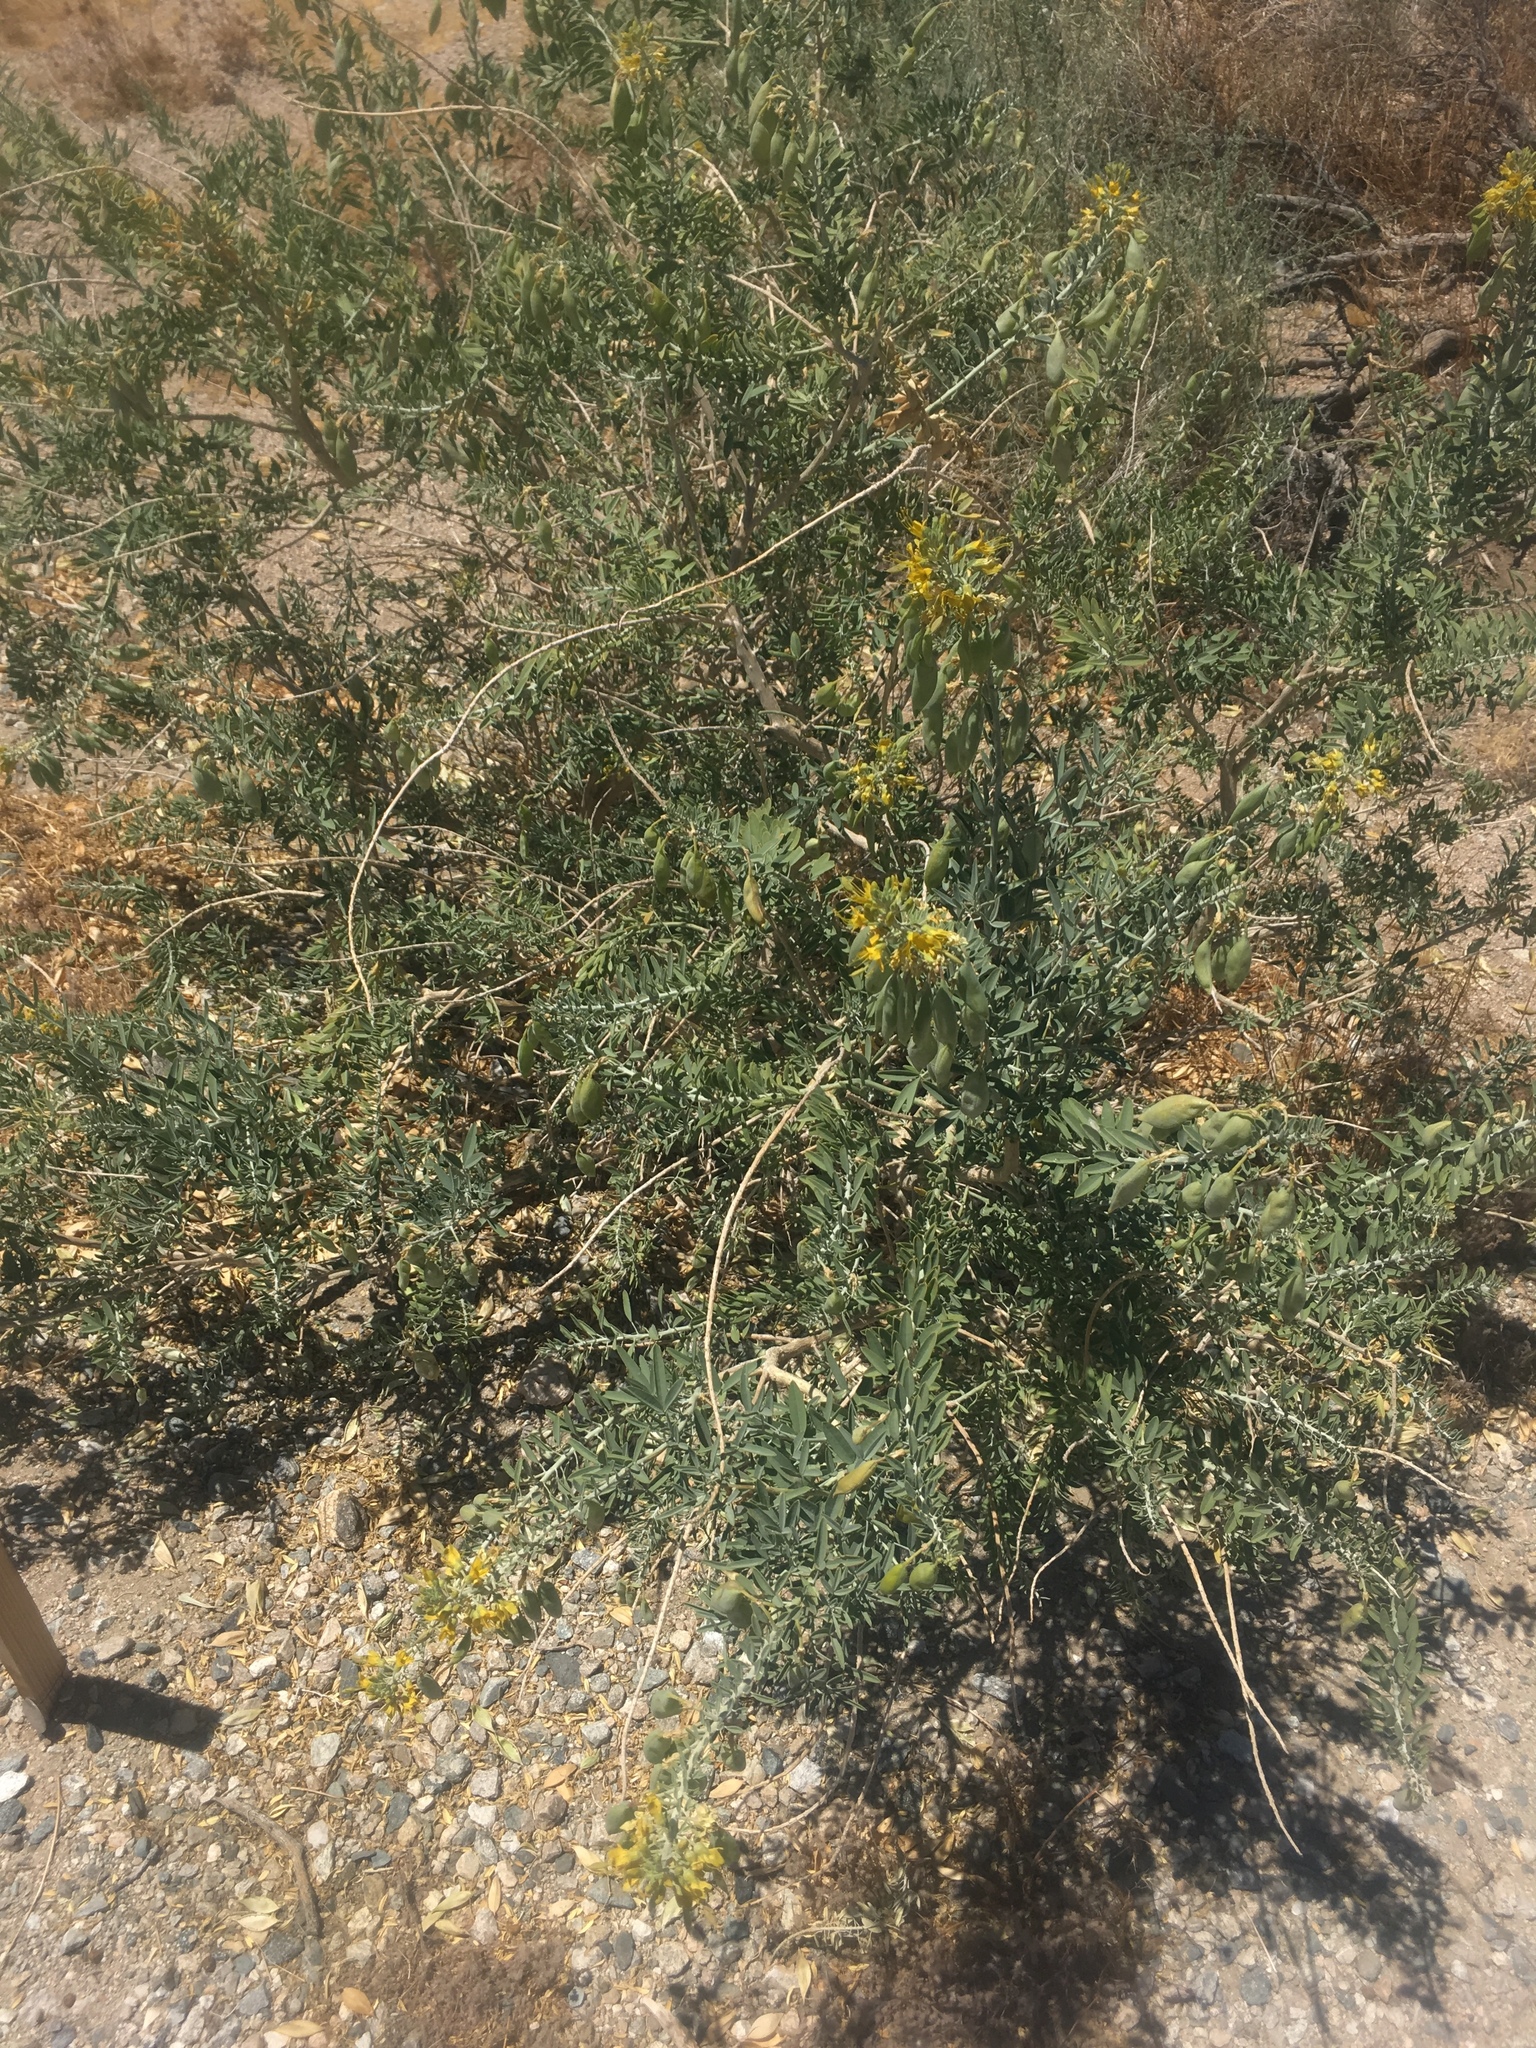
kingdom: Plantae
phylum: Tracheophyta
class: Magnoliopsida
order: Brassicales
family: Cleomaceae
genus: Cleomella
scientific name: Cleomella arborea
